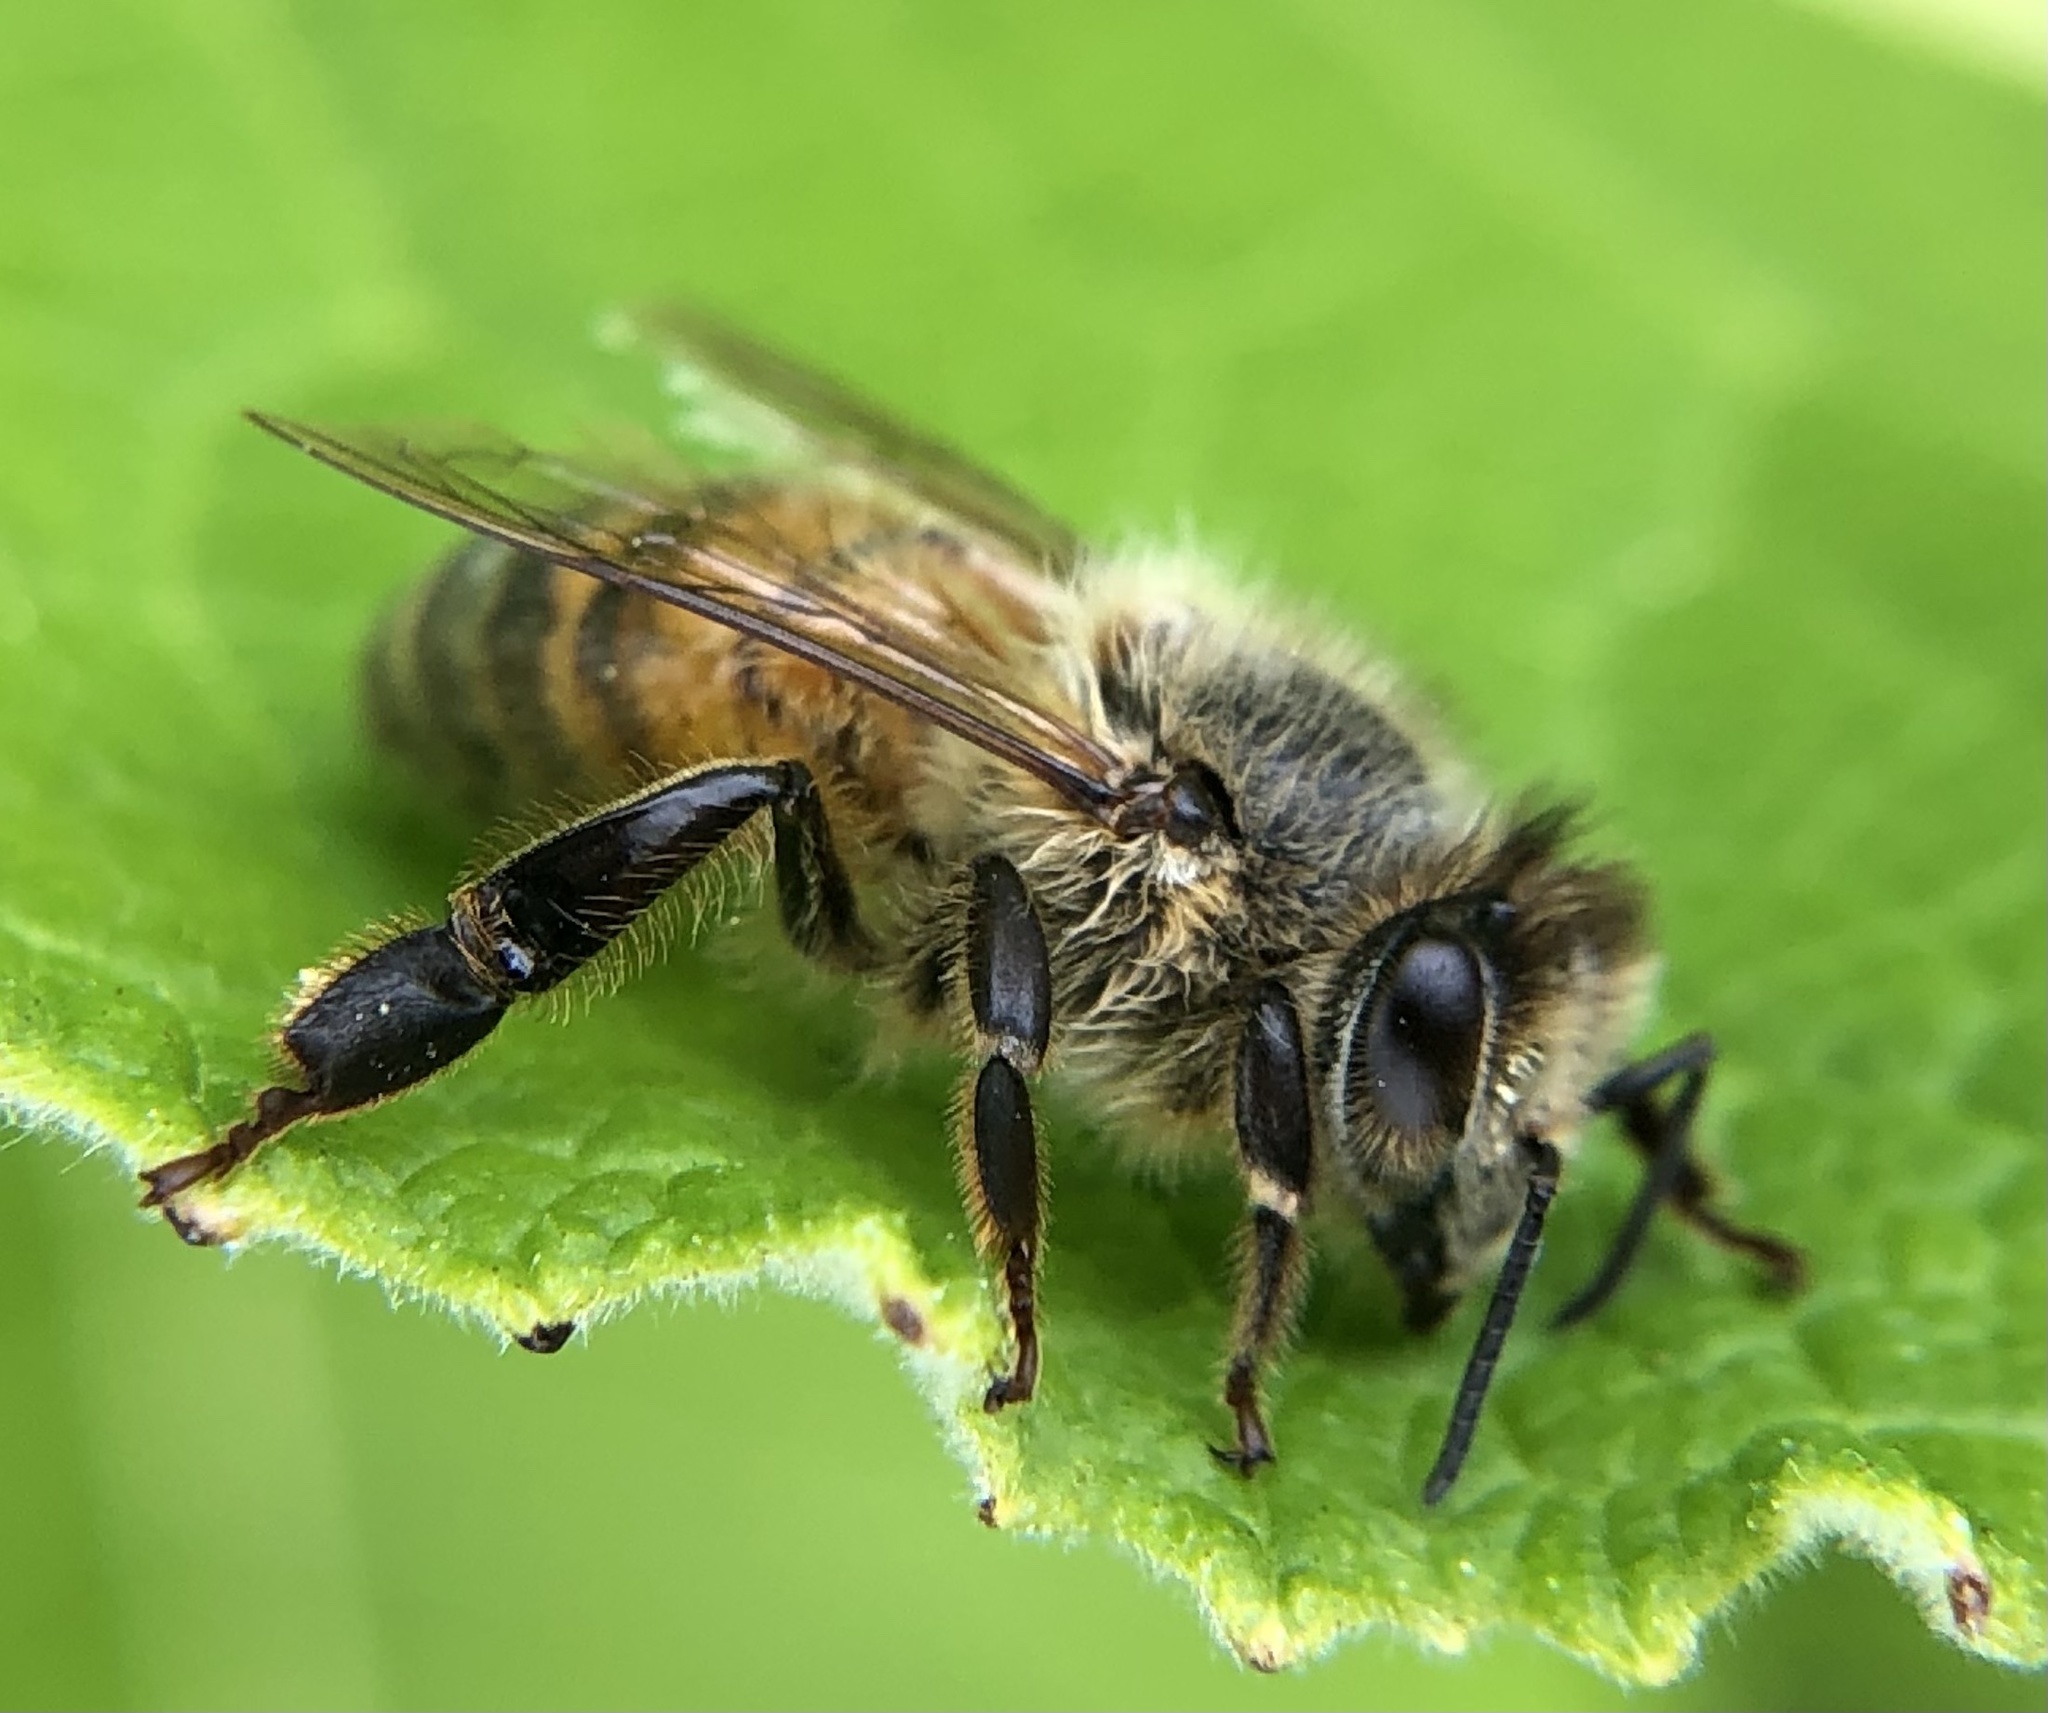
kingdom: Animalia
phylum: Arthropoda
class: Insecta
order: Hymenoptera
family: Apidae
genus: Apis
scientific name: Apis mellifera
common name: Honey bee
